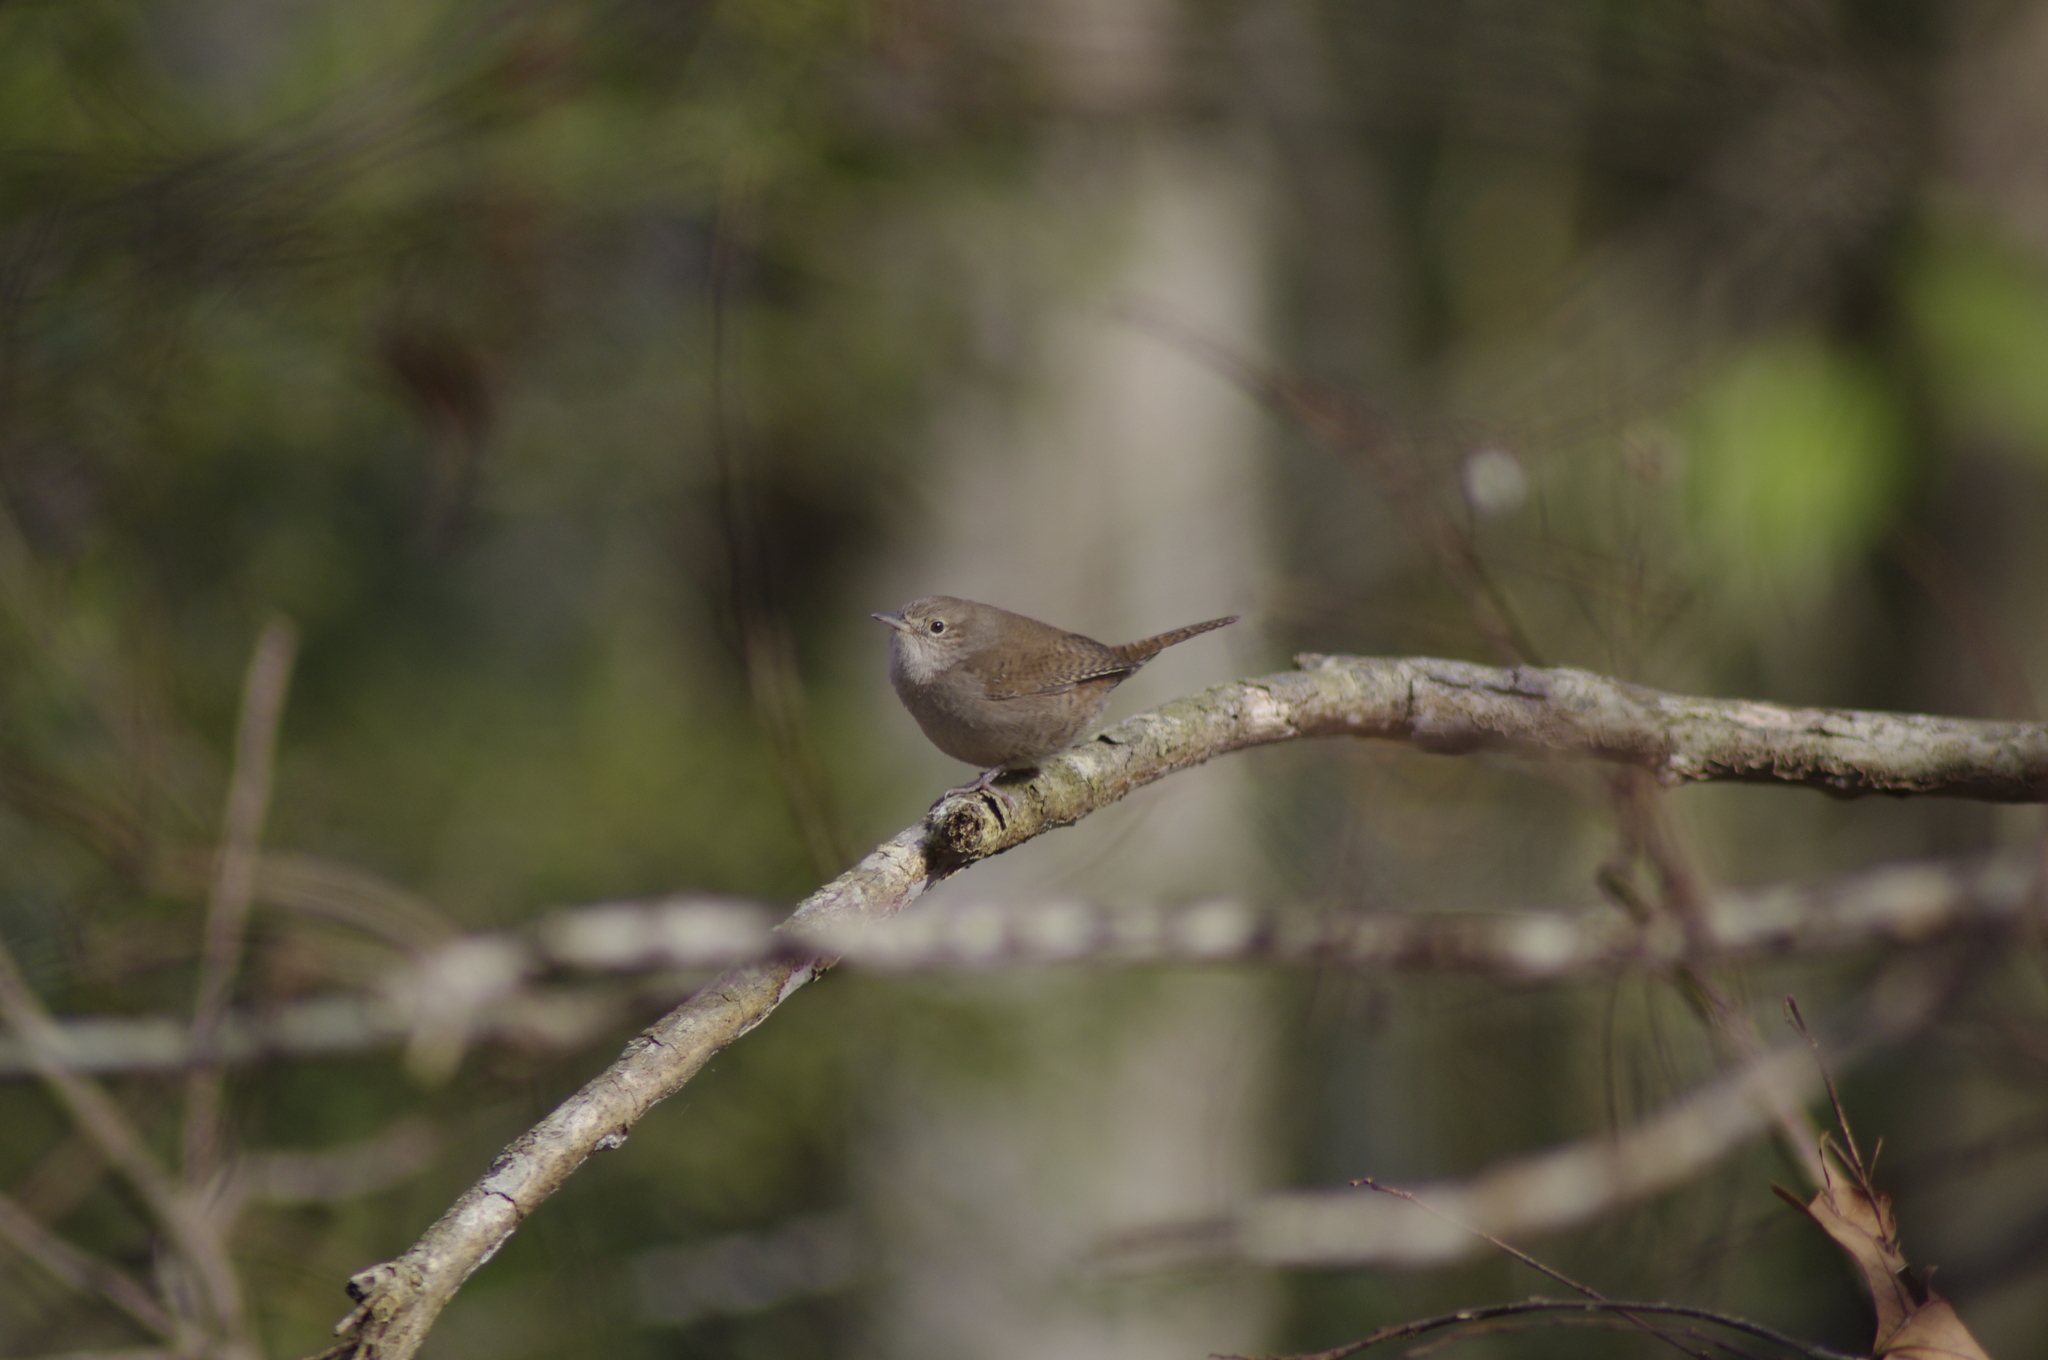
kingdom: Animalia
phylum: Chordata
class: Aves
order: Passeriformes
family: Troglodytidae
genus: Troglodytes
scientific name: Troglodytes aedon
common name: House wren
